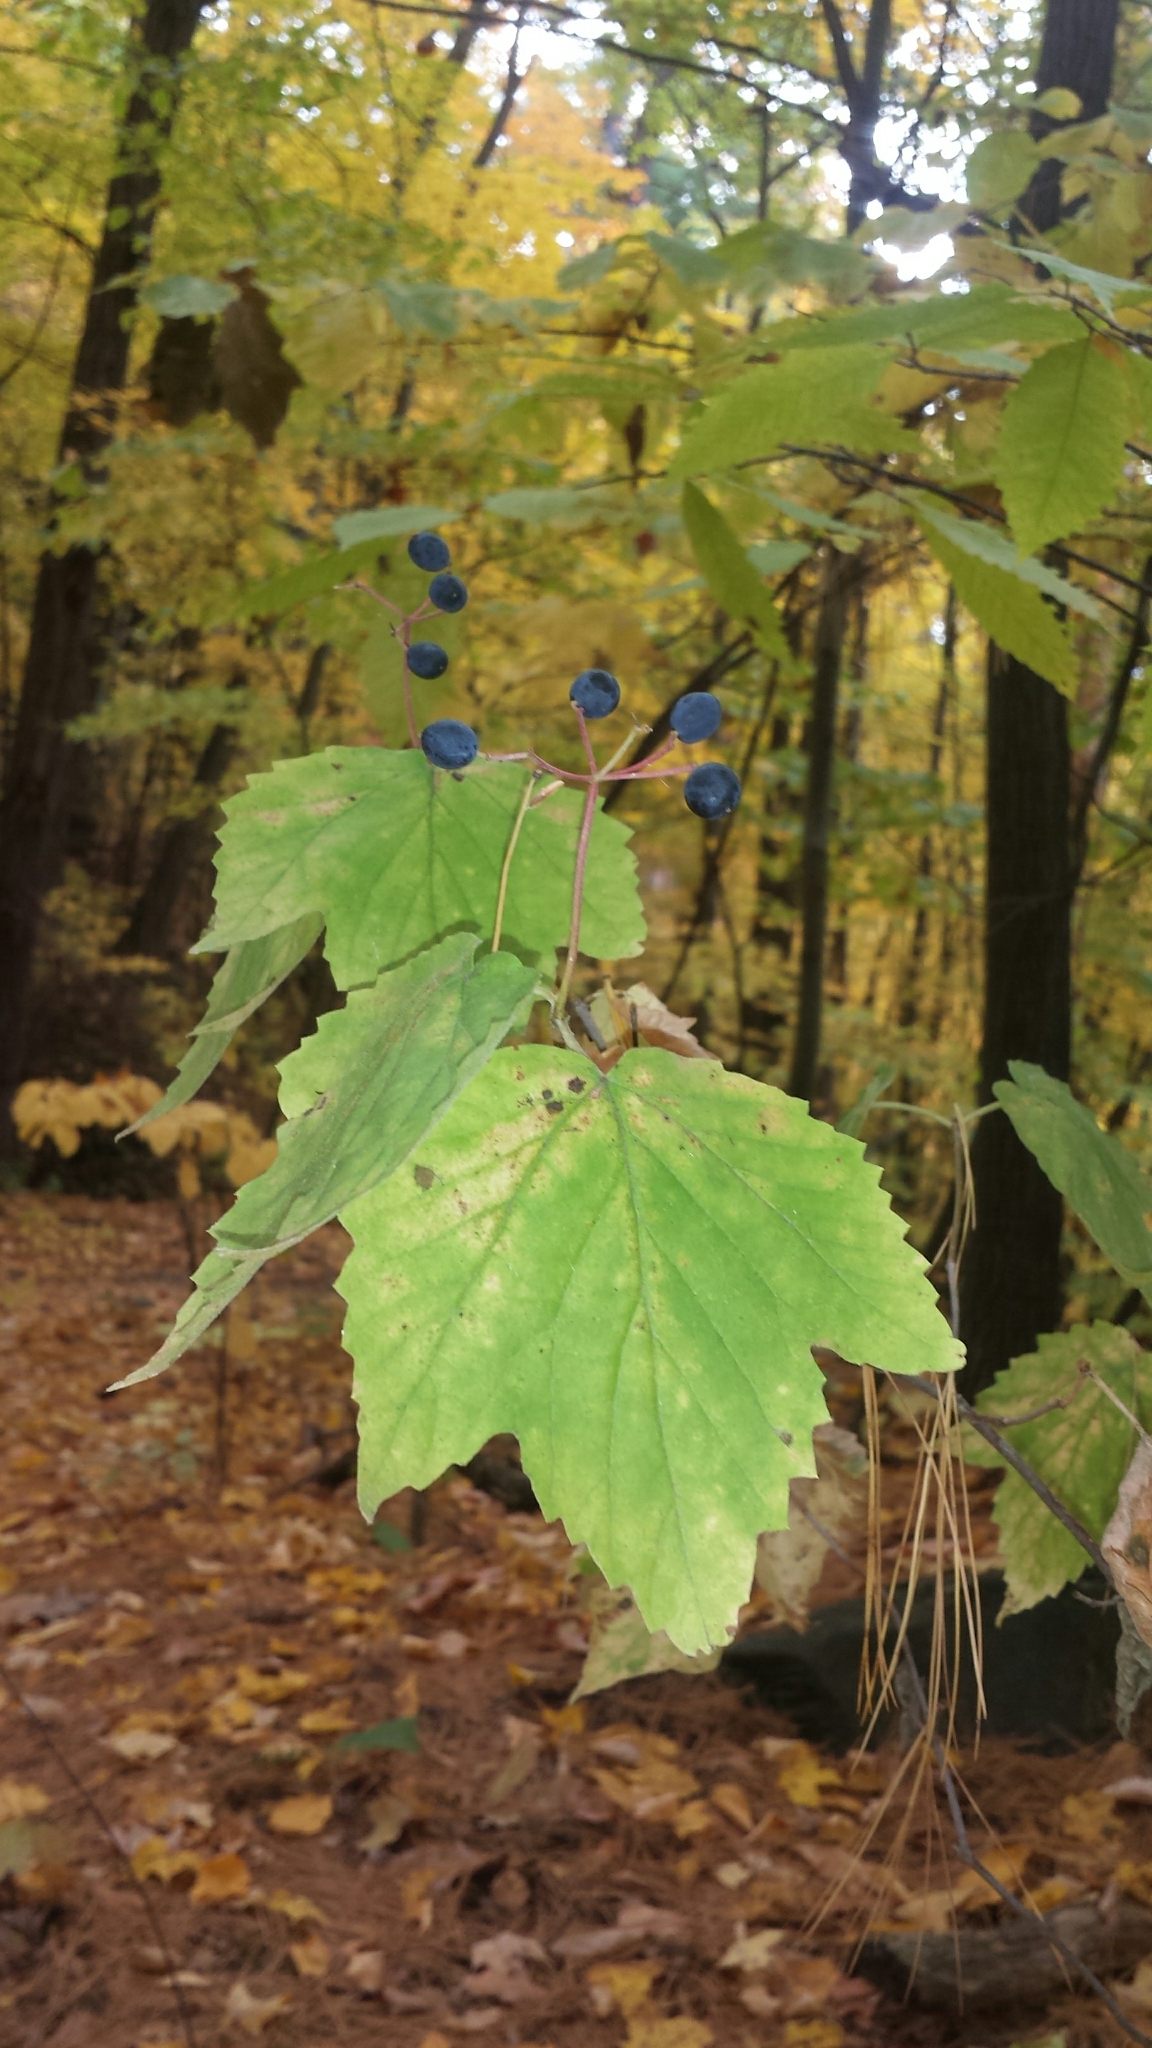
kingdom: Plantae
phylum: Tracheophyta
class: Magnoliopsida
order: Dipsacales
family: Viburnaceae
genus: Viburnum
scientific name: Viburnum acerifolium
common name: Dockmackie
